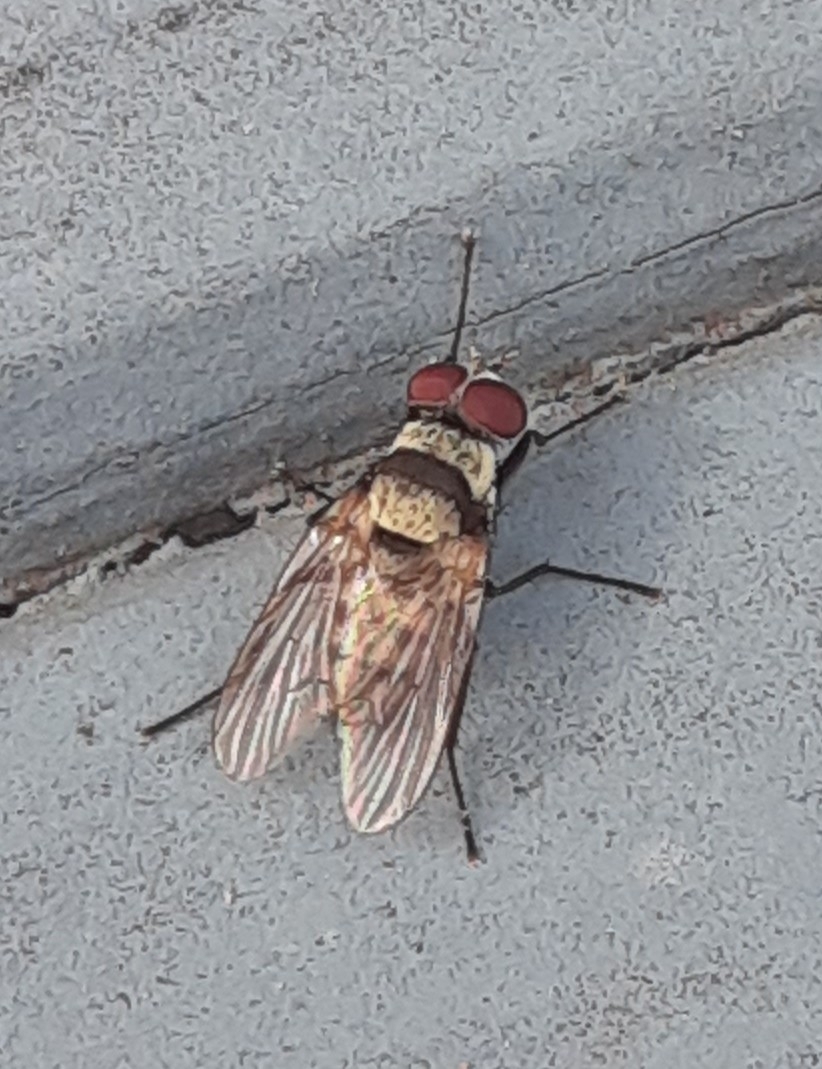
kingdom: Animalia
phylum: Arthropoda
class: Insecta
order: Diptera
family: Anthomyiidae
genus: Anthomyia
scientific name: Anthomyia illocata
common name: Fly
